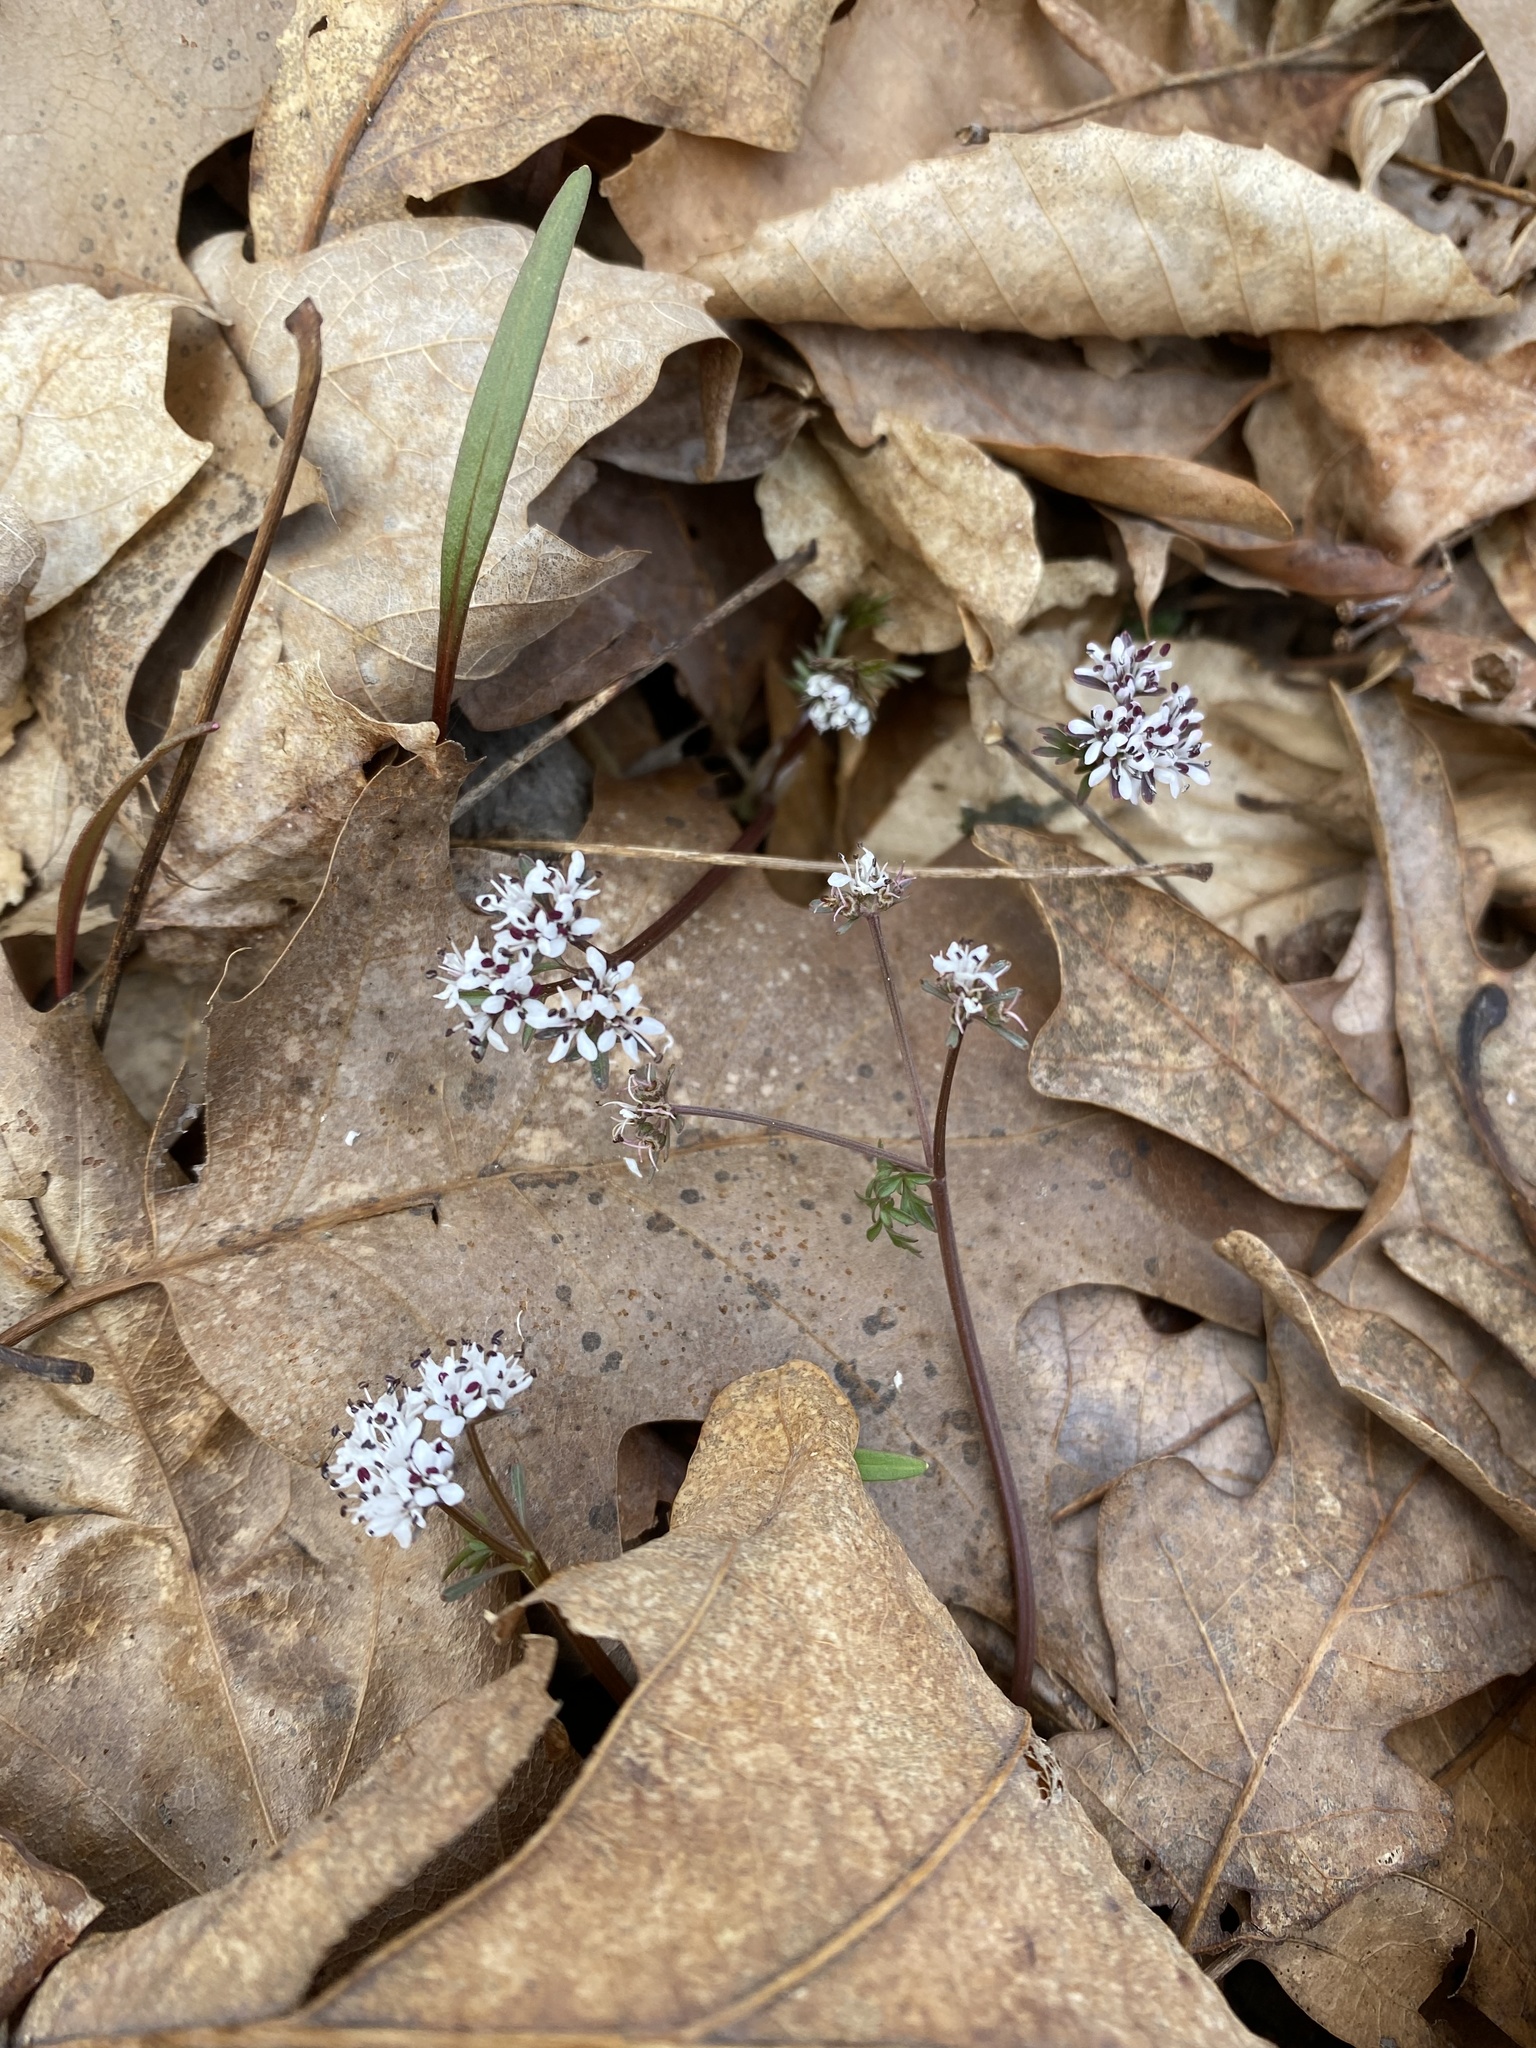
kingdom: Plantae
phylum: Tracheophyta
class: Magnoliopsida
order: Apiales
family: Apiaceae
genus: Erigenia
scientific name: Erigenia bulbosa
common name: Pepper-and-salt
